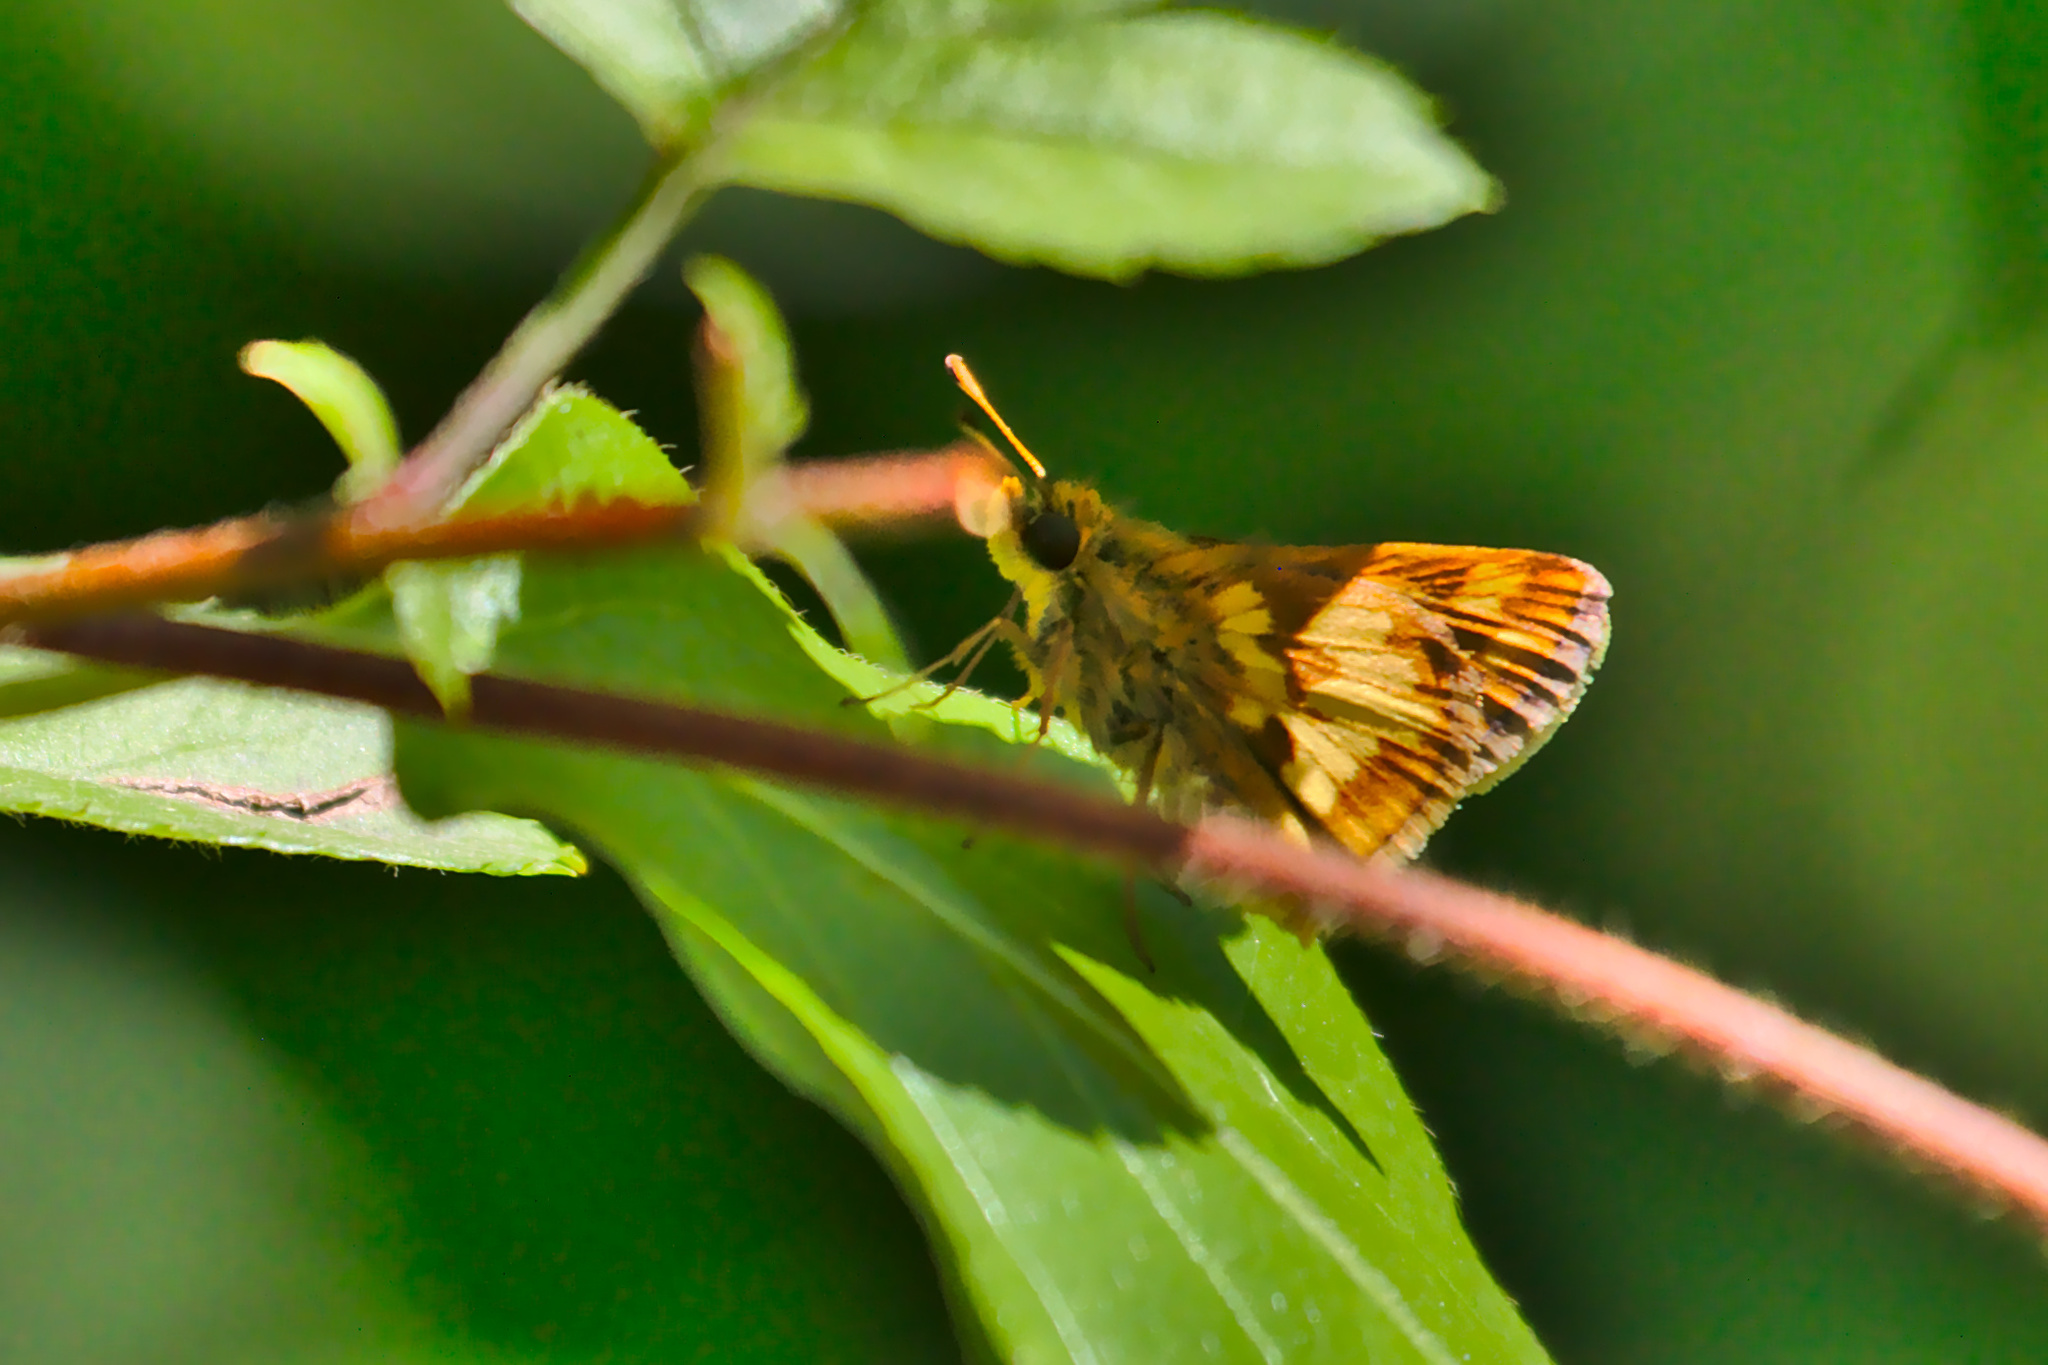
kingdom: Animalia
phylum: Arthropoda
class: Insecta
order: Lepidoptera
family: Hesperiidae
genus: Polites
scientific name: Polites coras
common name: Peck's skipper
